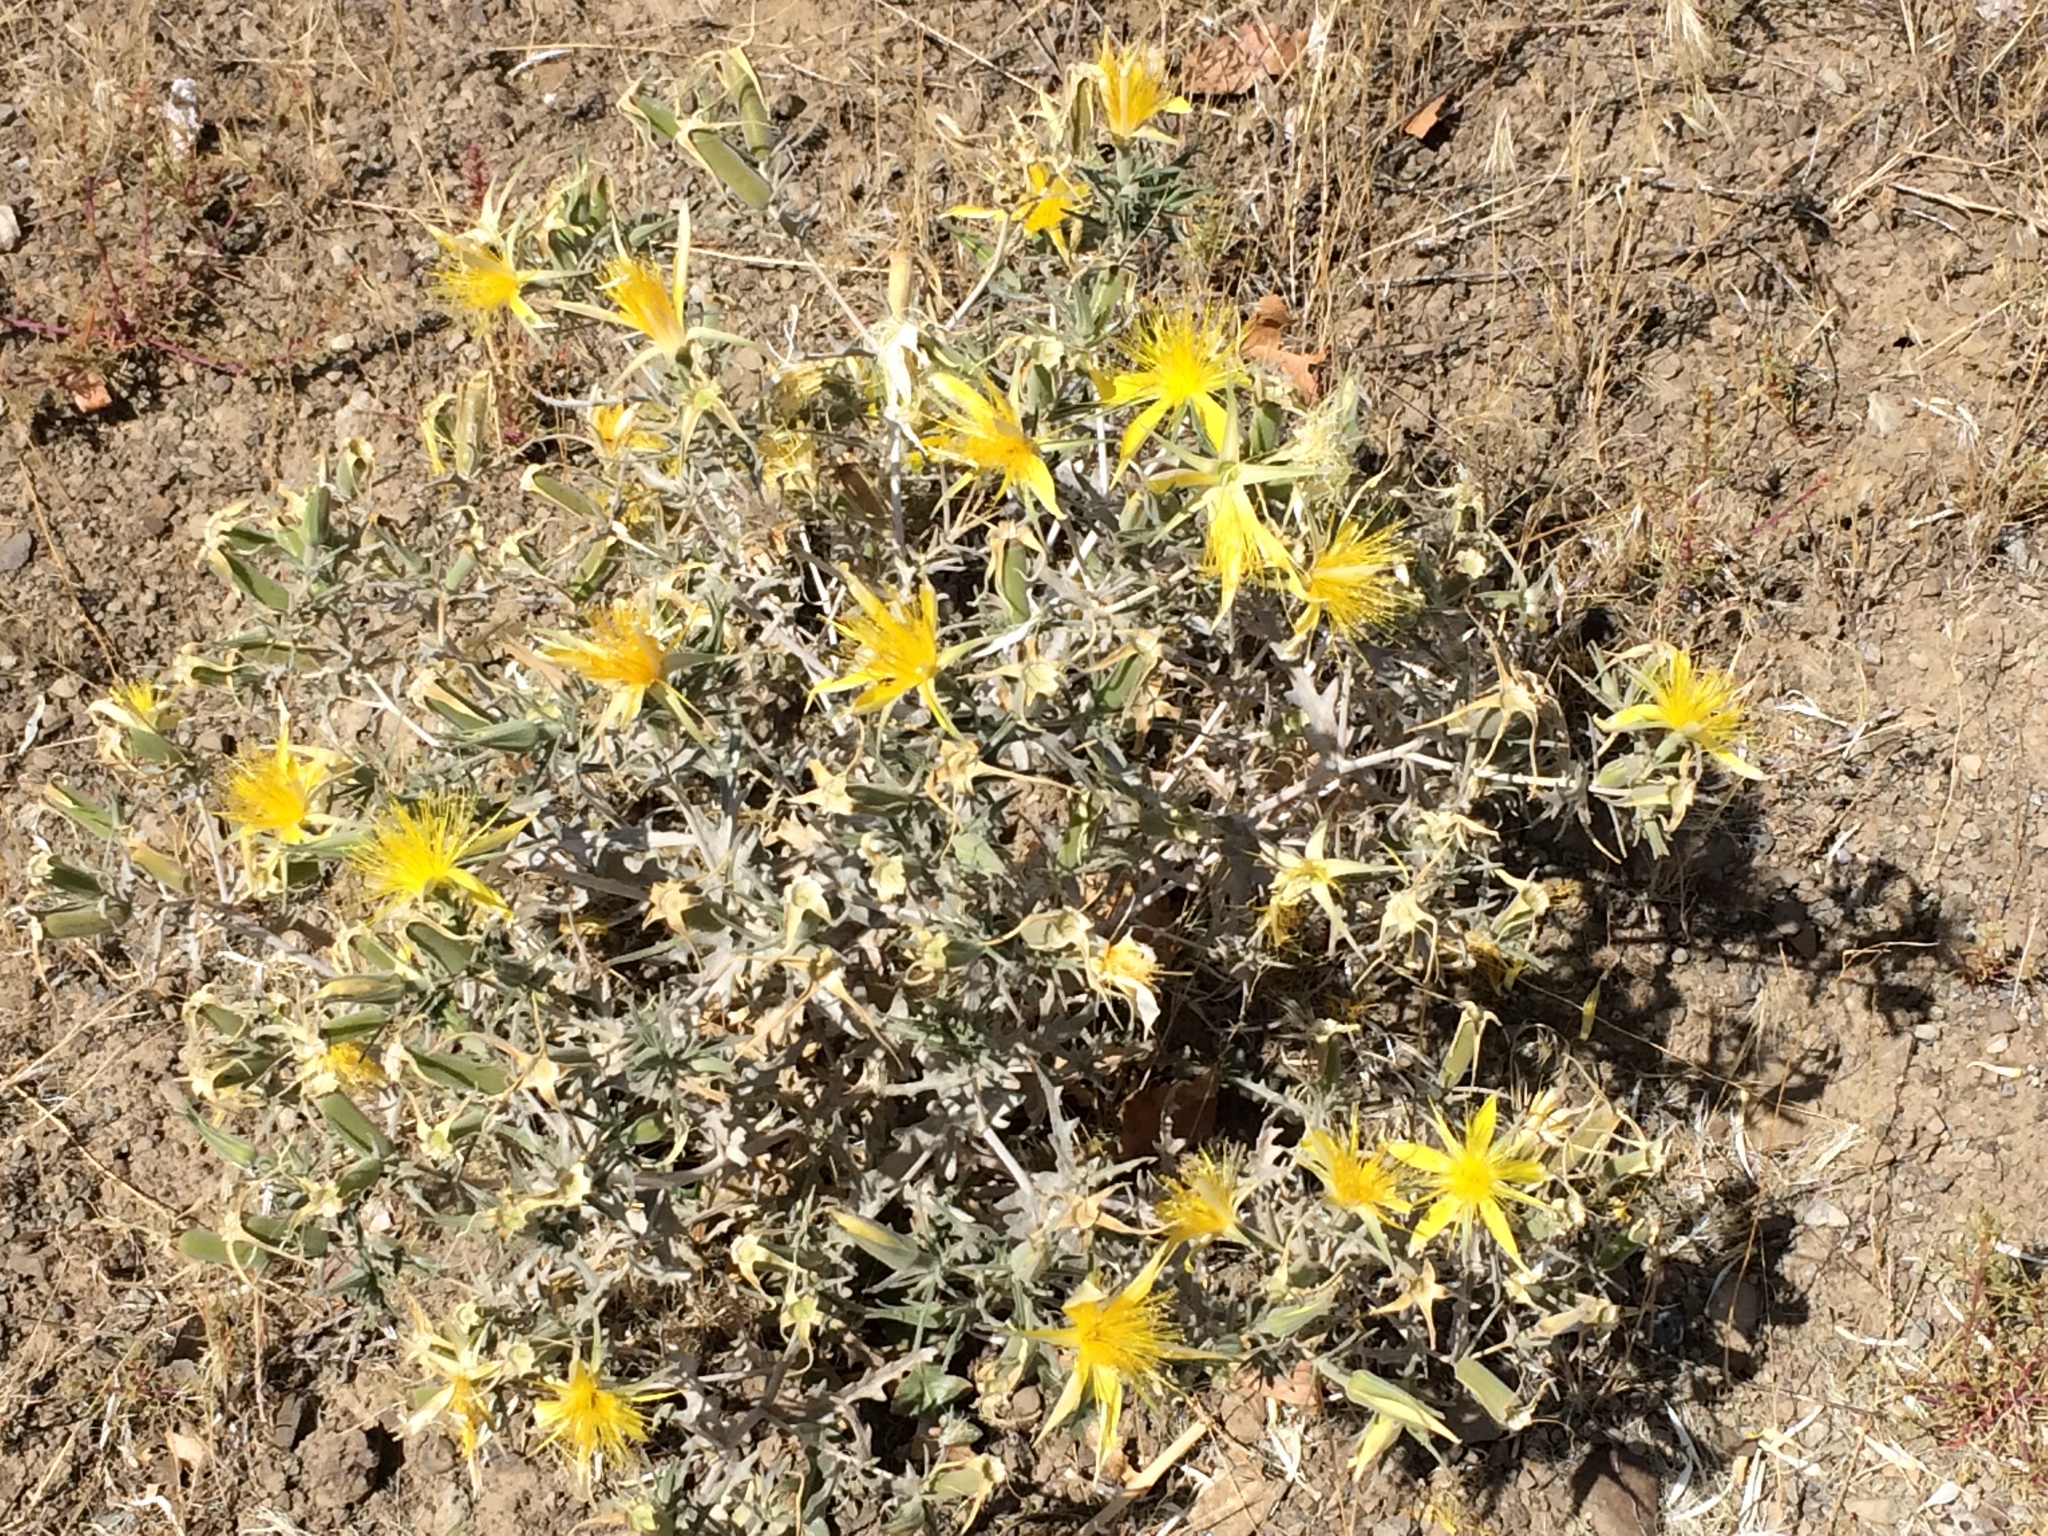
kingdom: Plantae
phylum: Tracheophyta
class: Magnoliopsida
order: Cornales
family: Loasaceae
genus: Mentzelia
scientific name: Mentzelia laevicaulis
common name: Smooth-stem blazingstar
